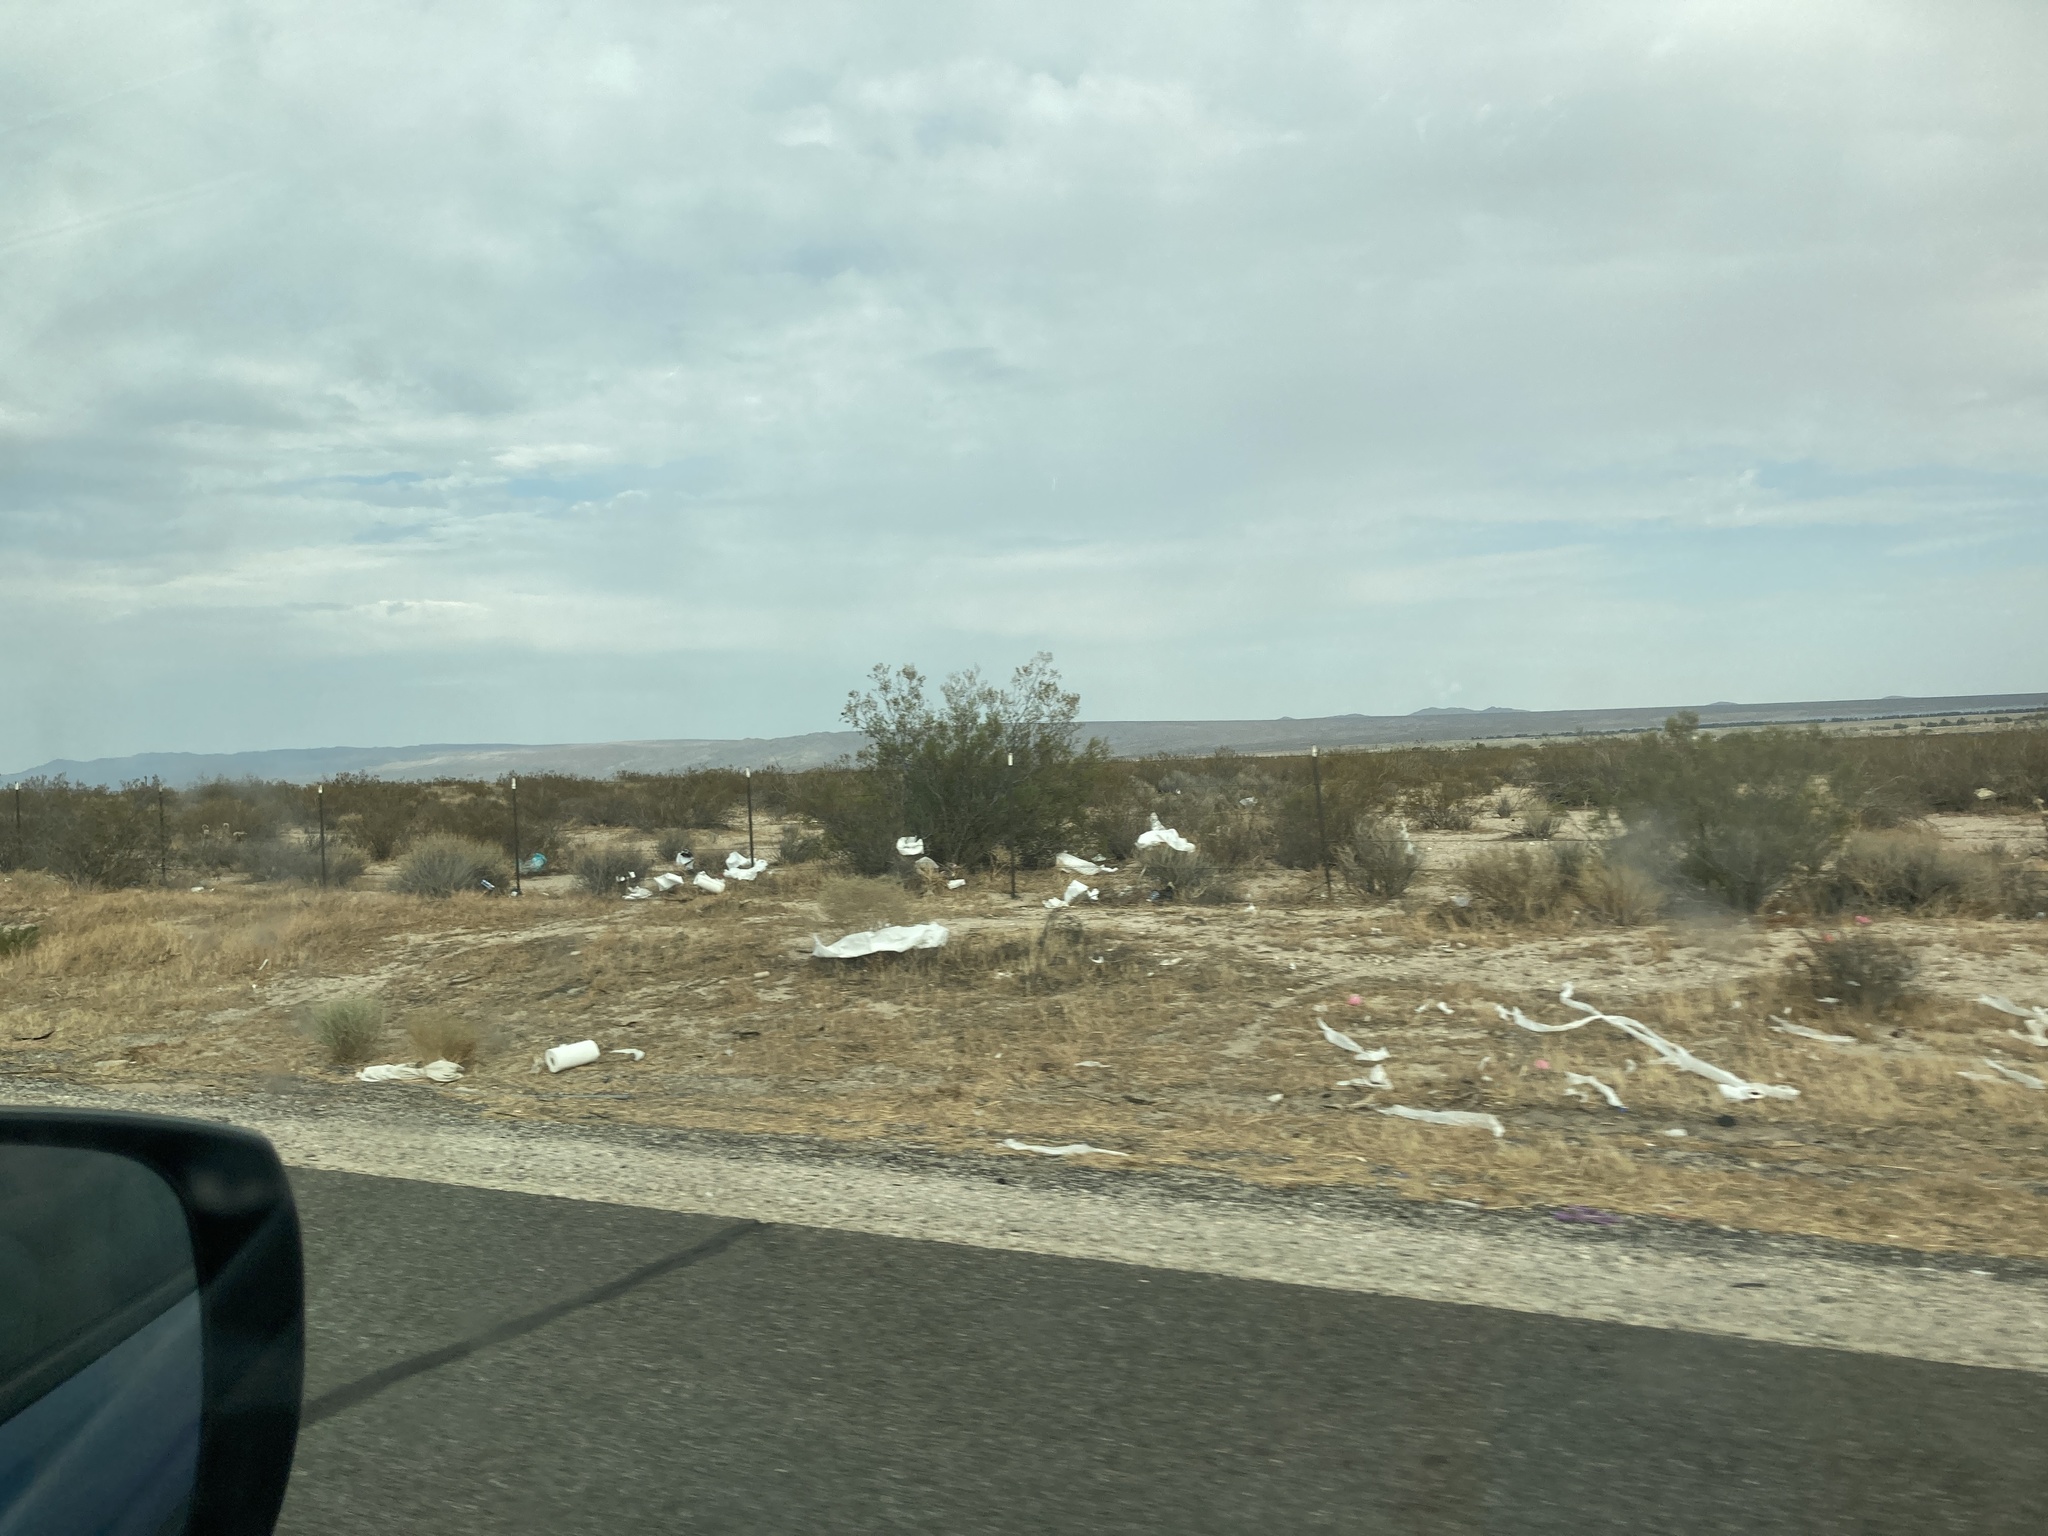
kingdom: Plantae
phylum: Tracheophyta
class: Magnoliopsida
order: Zygophyllales
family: Zygophyllaceae
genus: Larrea
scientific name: Larrea tridentata
